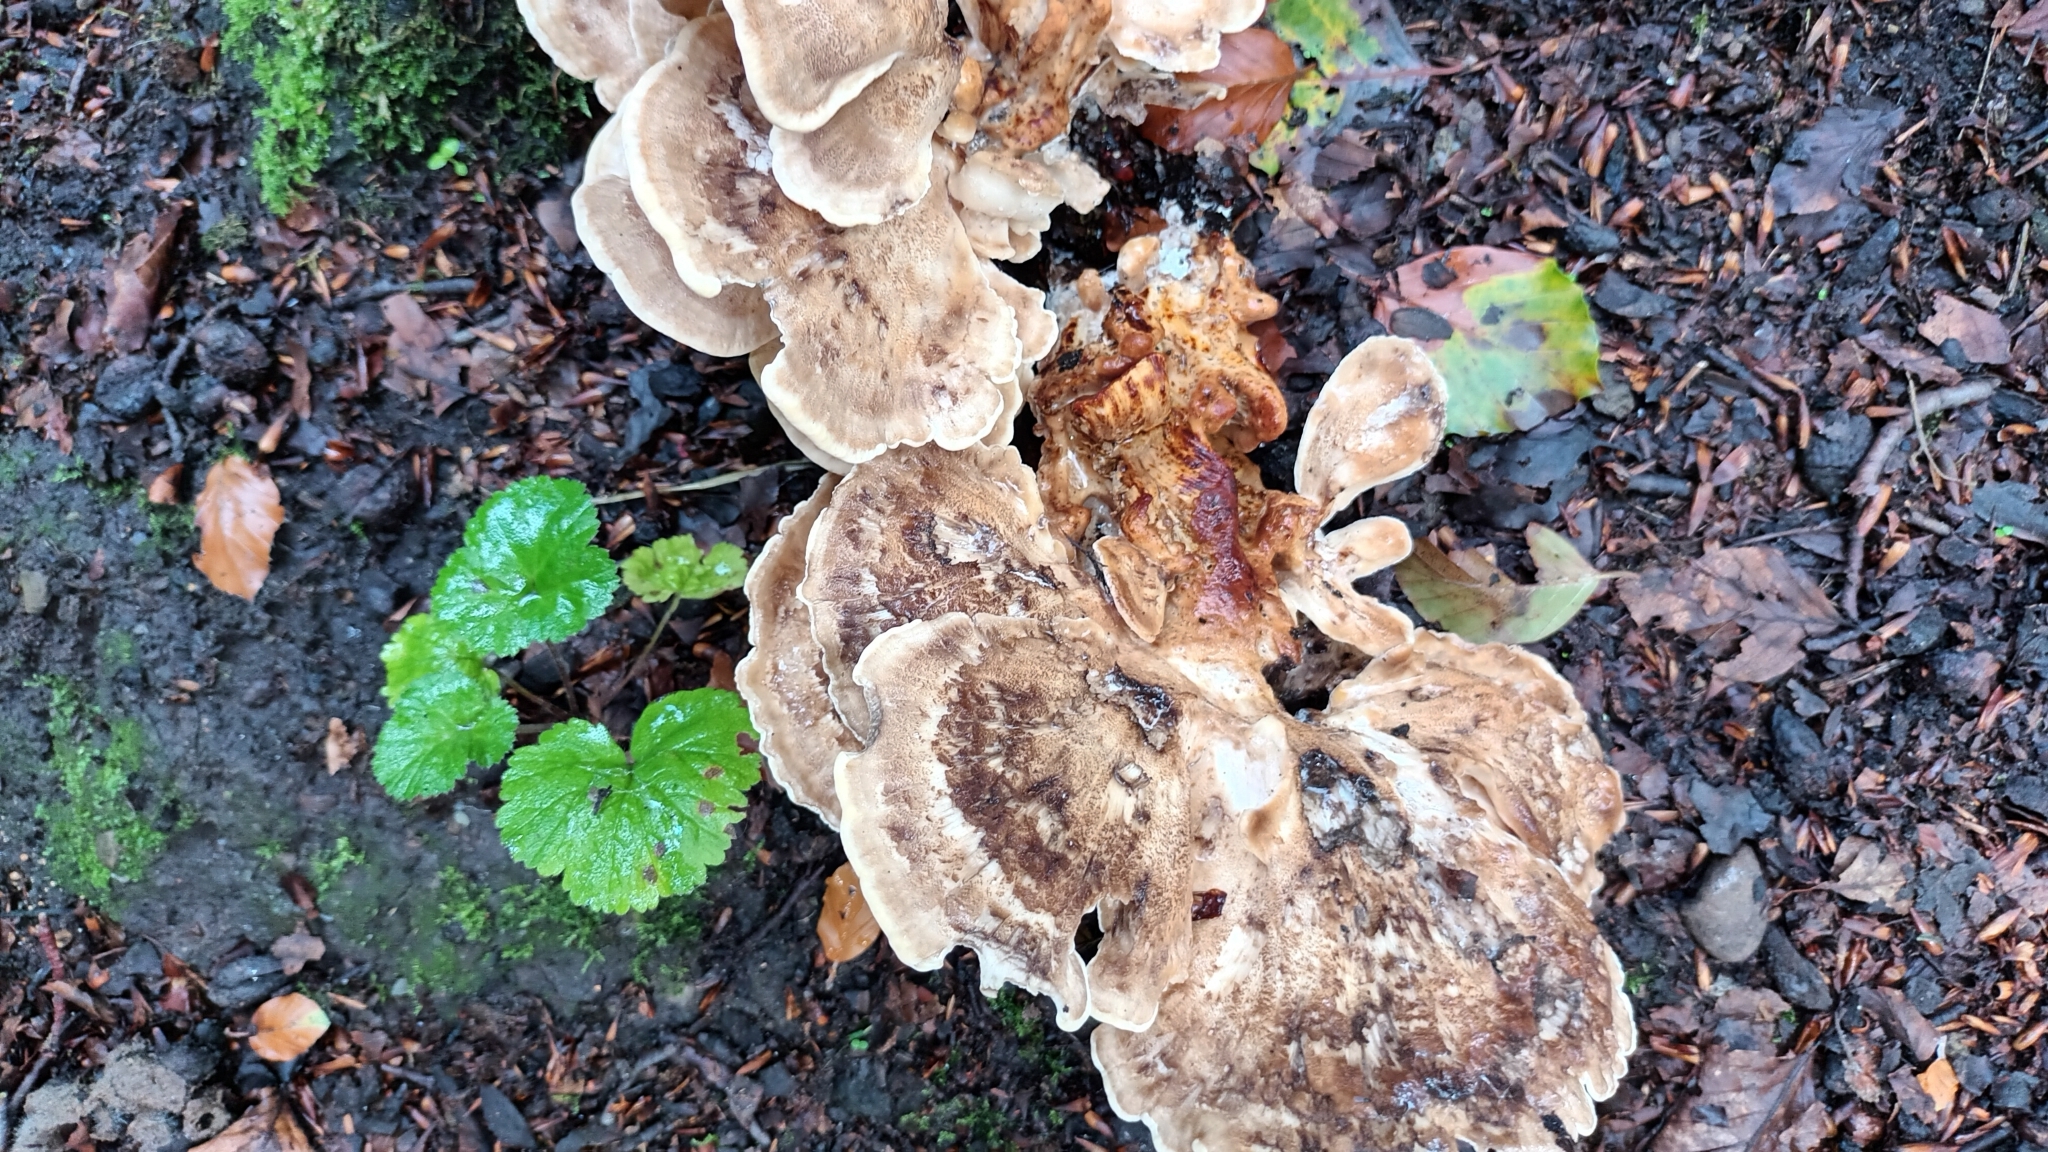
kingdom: Fungi
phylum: Basidiomycota
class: Agaricomycetes
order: Polyporales
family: Meripilaceae
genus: Meripilus
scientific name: Meripilus giganteus
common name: Giant polypore
